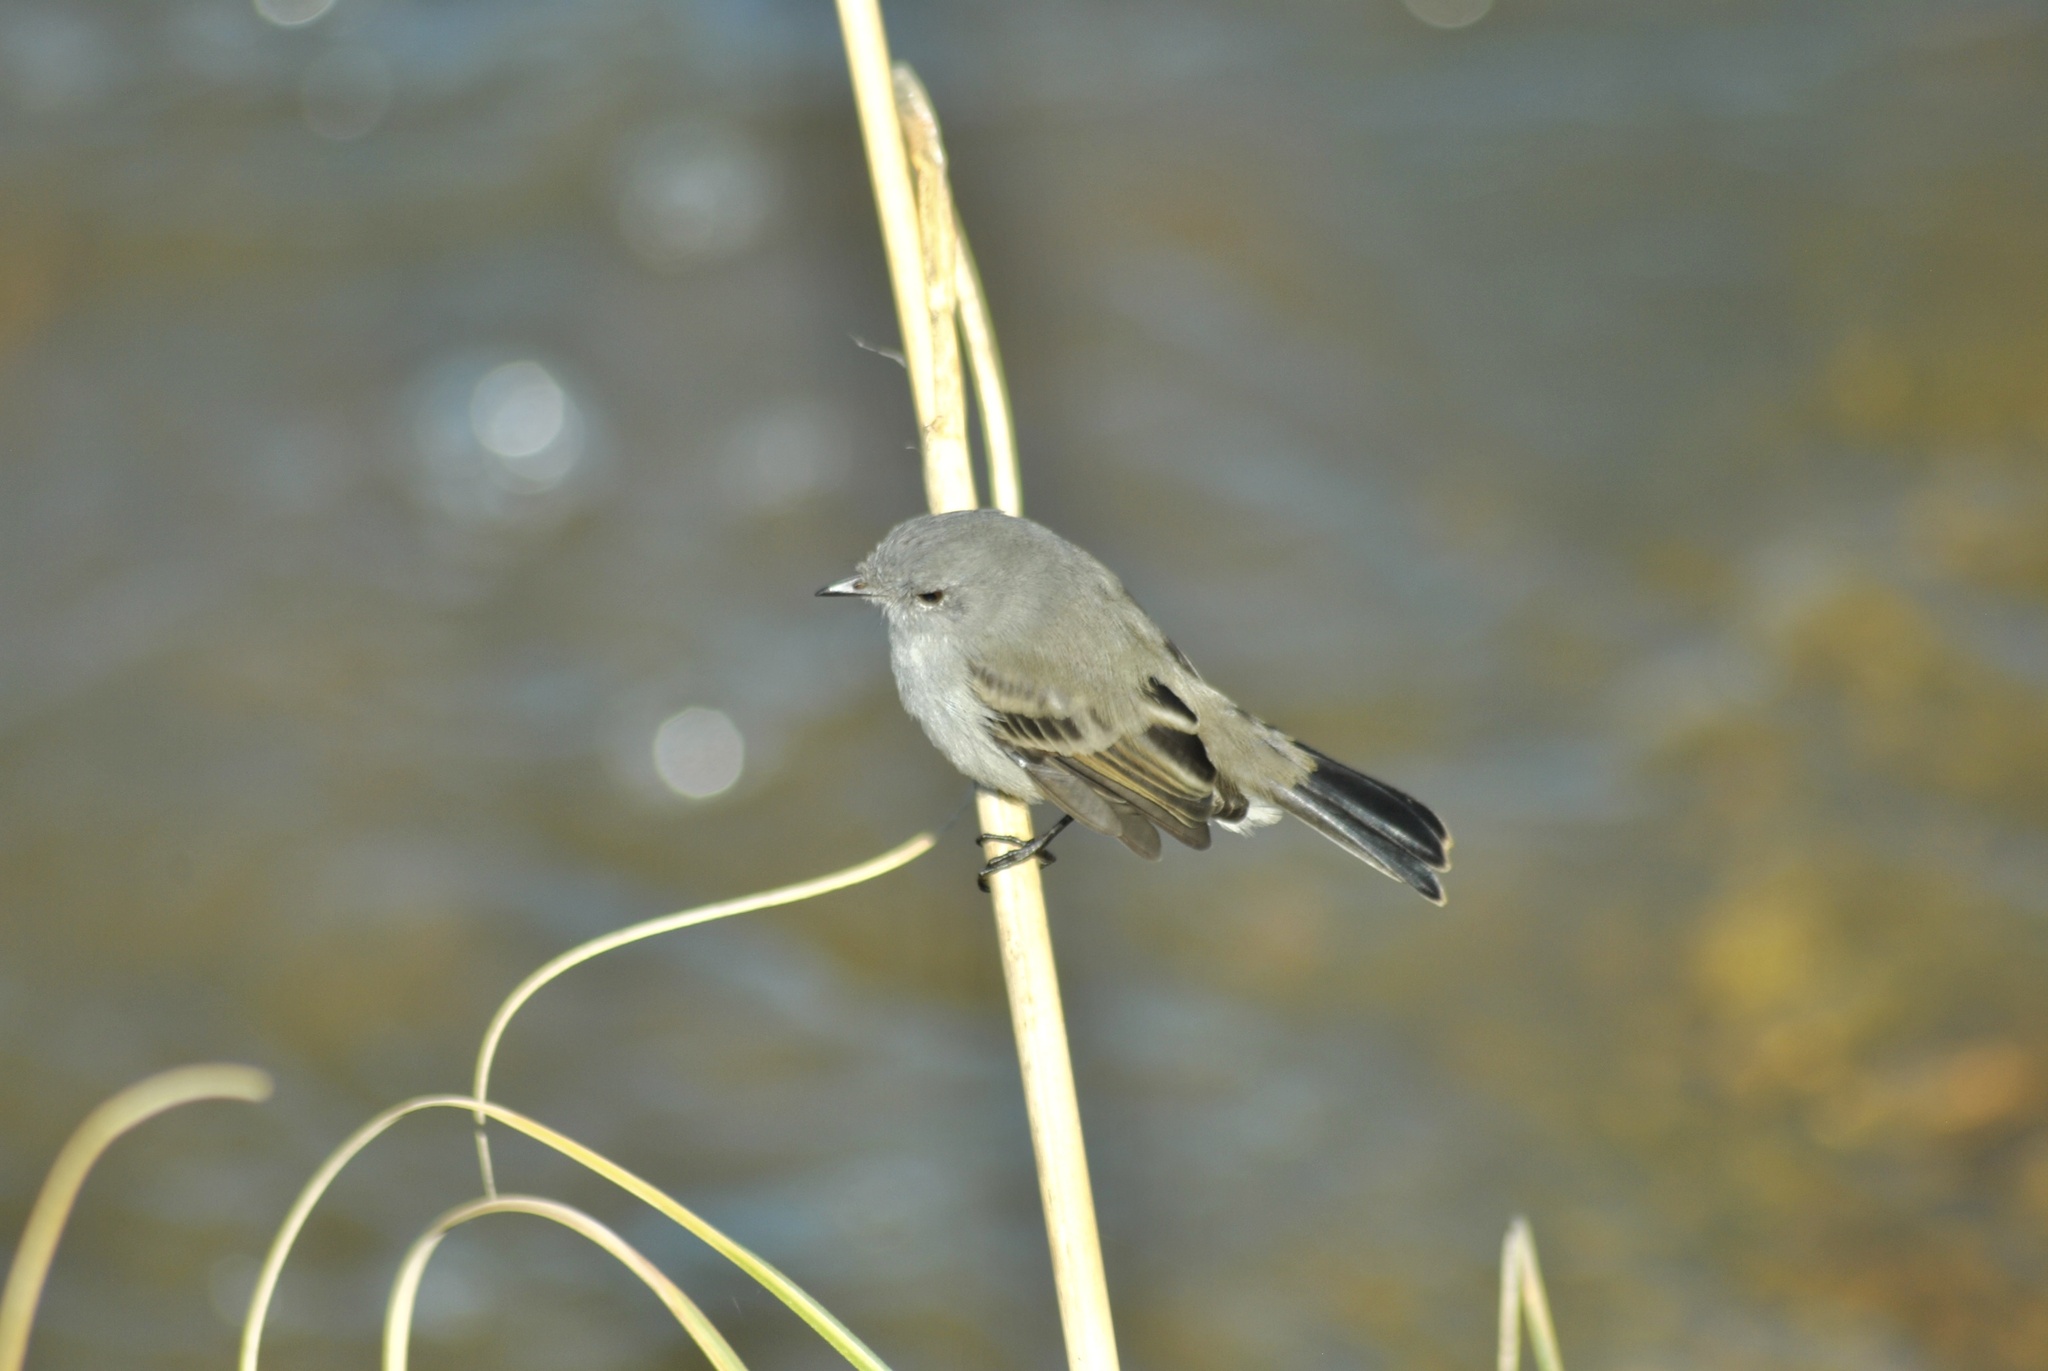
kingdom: Animalia
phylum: Chordata
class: Aves
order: Passeriformes
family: Tyrannidae
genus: Serpophaga
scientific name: Serpophaga nigricans
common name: Sooty tyrannulet
